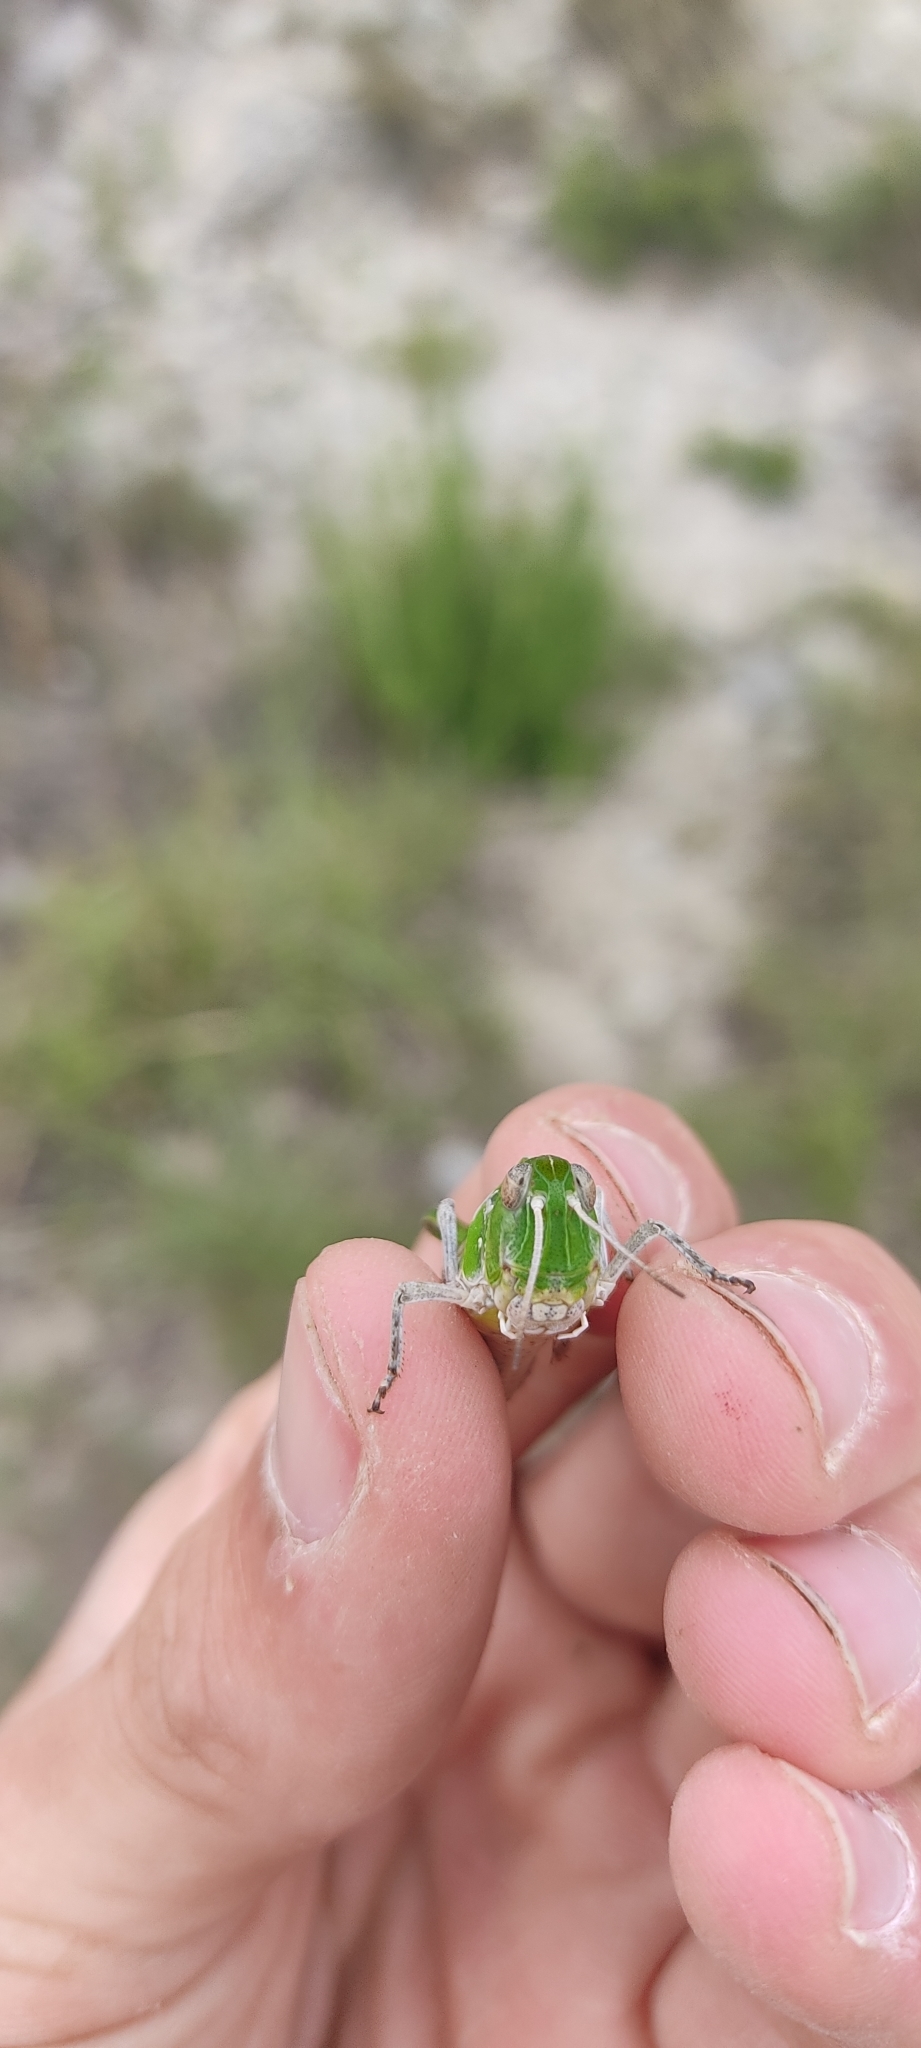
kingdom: Animalia
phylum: Arthropoda
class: Insecta
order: Orthoptera
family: Acrididae
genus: Oedaleus
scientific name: Oedaleus decorus
